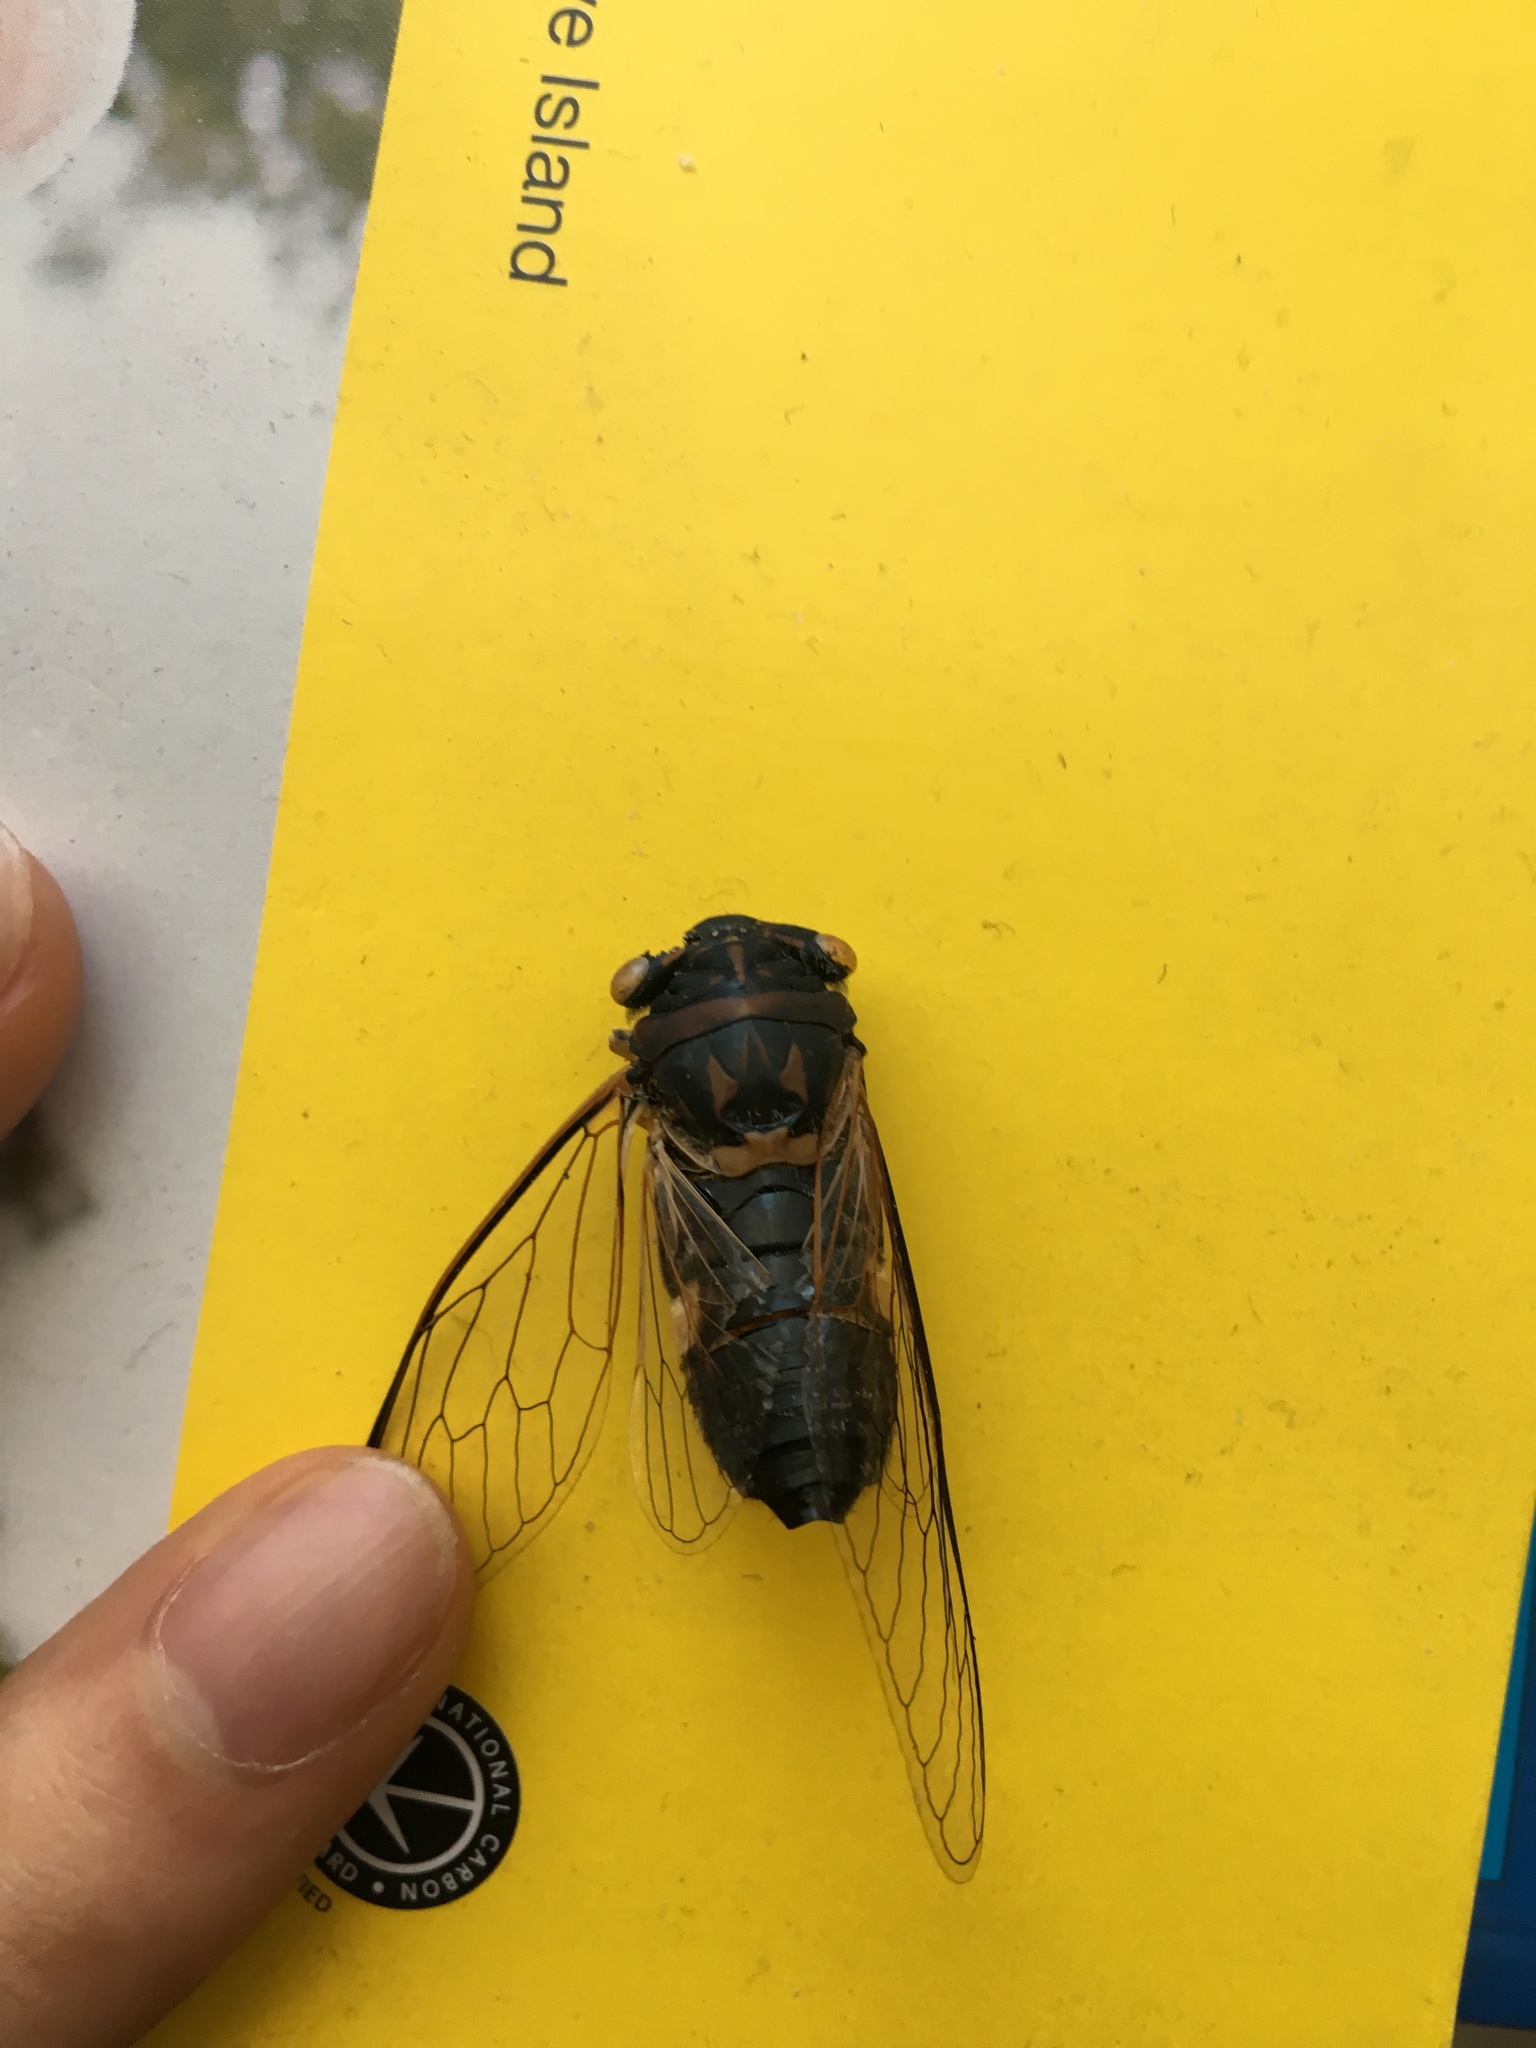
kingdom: Animalia
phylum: Arthropoda
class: Insecta
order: Hemiptera
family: Cicadidae
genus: Psaltoda
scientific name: Psaltoda harrisii
